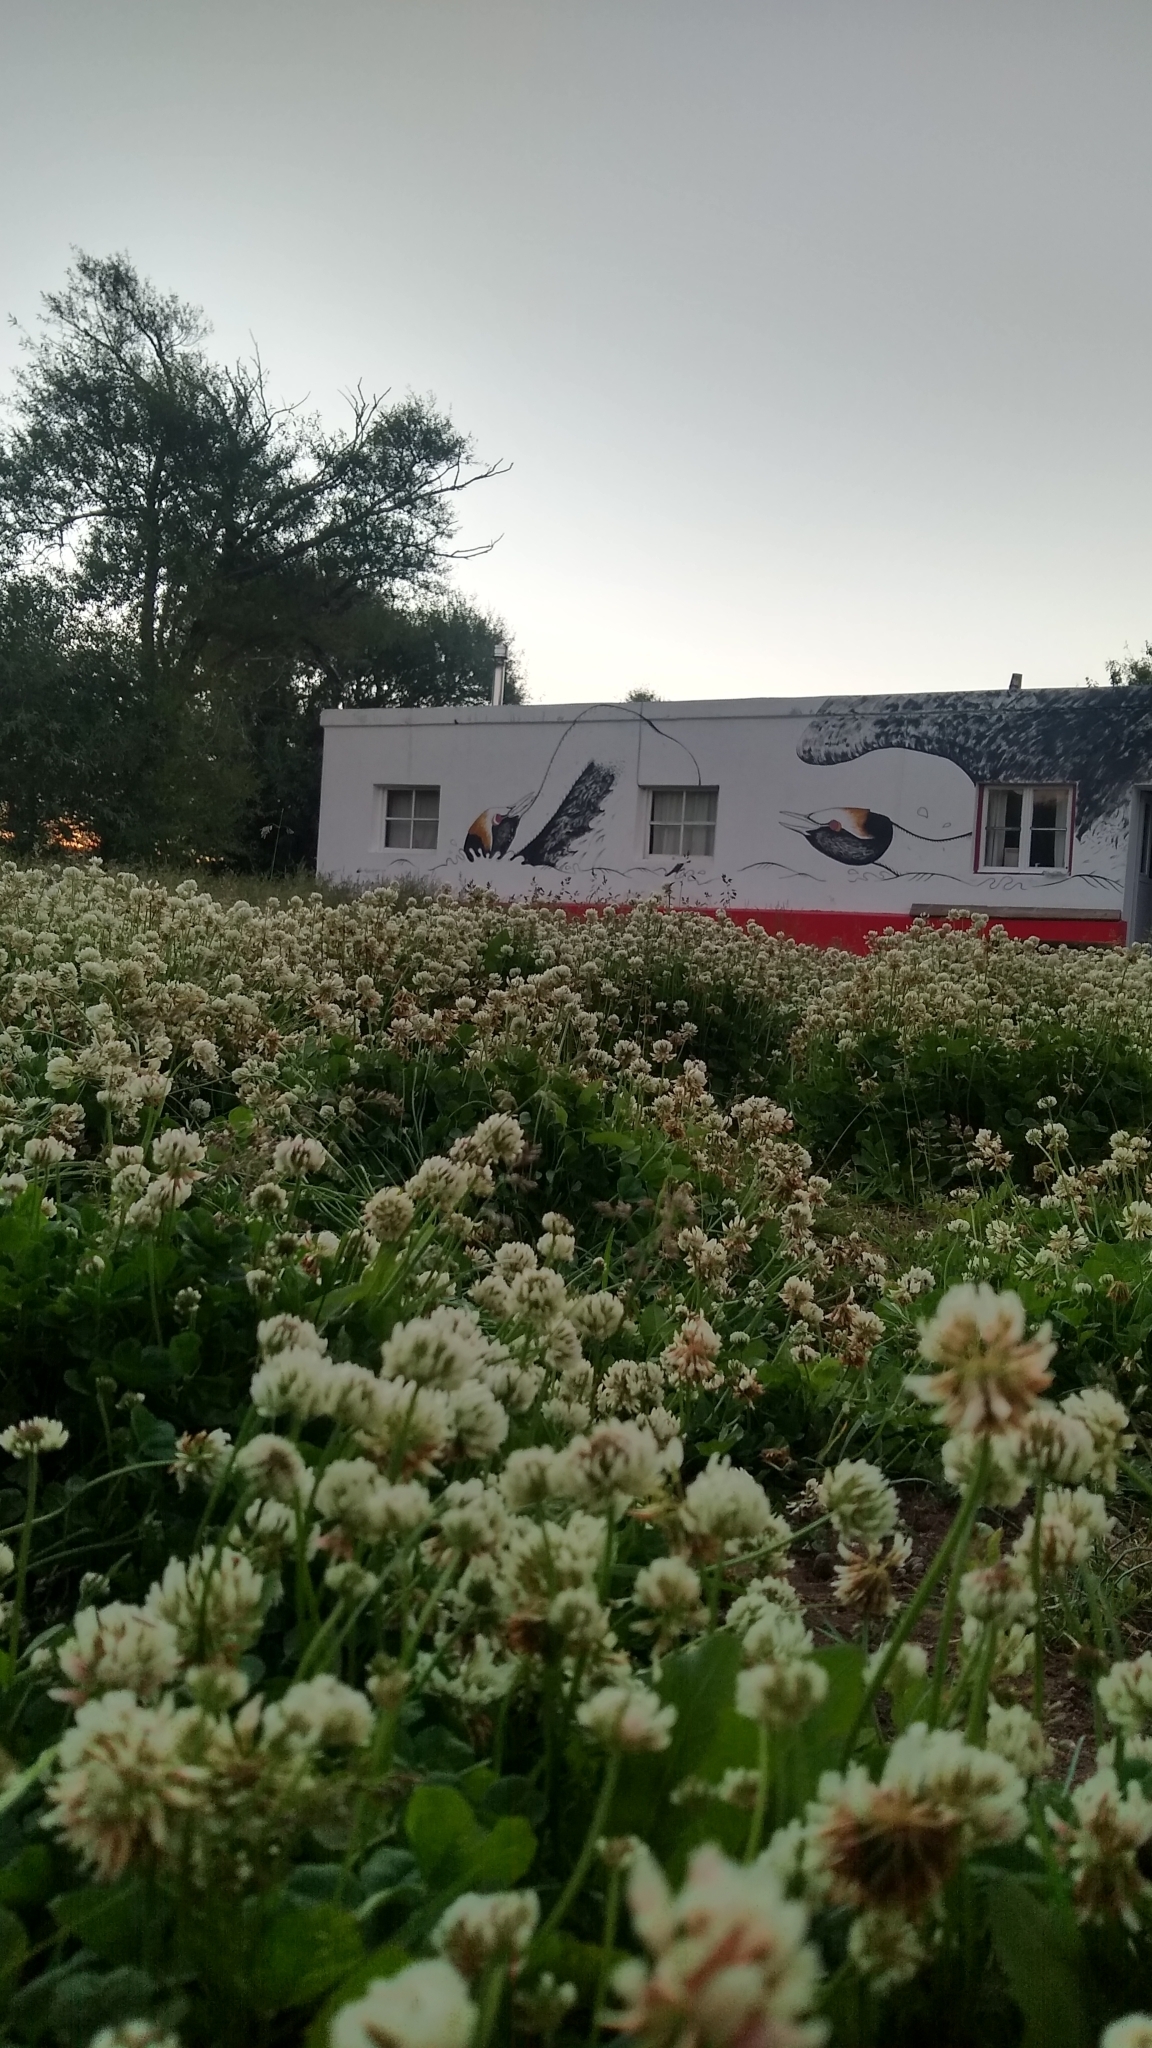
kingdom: Plantae
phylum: Tracheophyta
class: Magnoliopsida
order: Fabales
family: Fabaceae
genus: Trifolium
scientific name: Trifolium repens
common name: White clover
